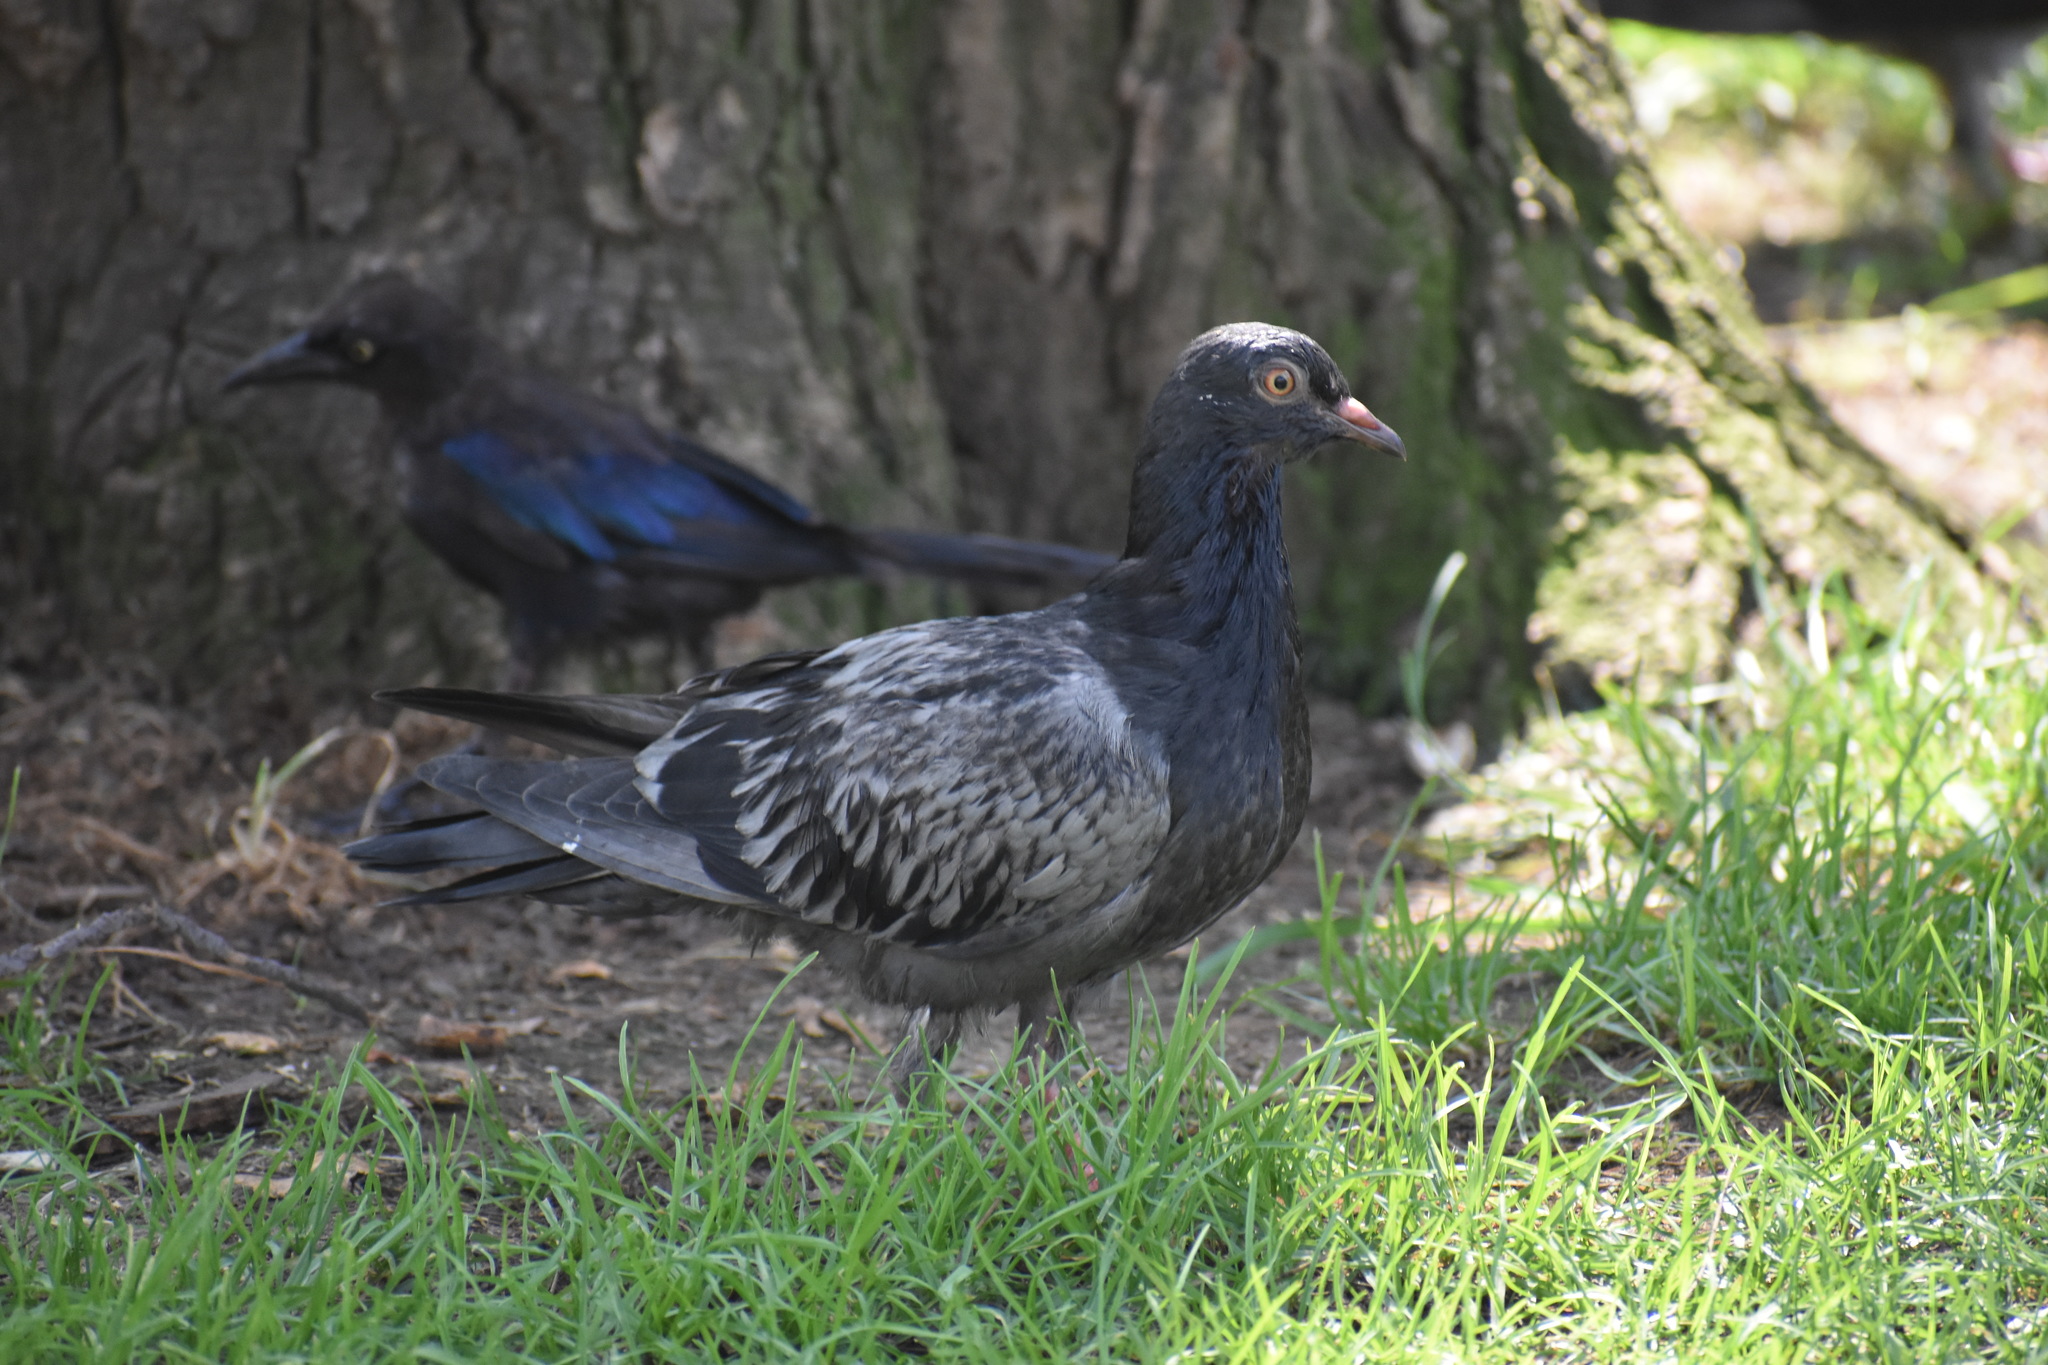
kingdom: Animalia
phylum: Chordata
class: Aves
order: Columbiformes
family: Columbidae
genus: Columba
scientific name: Columba livia
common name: Rock pigeon
